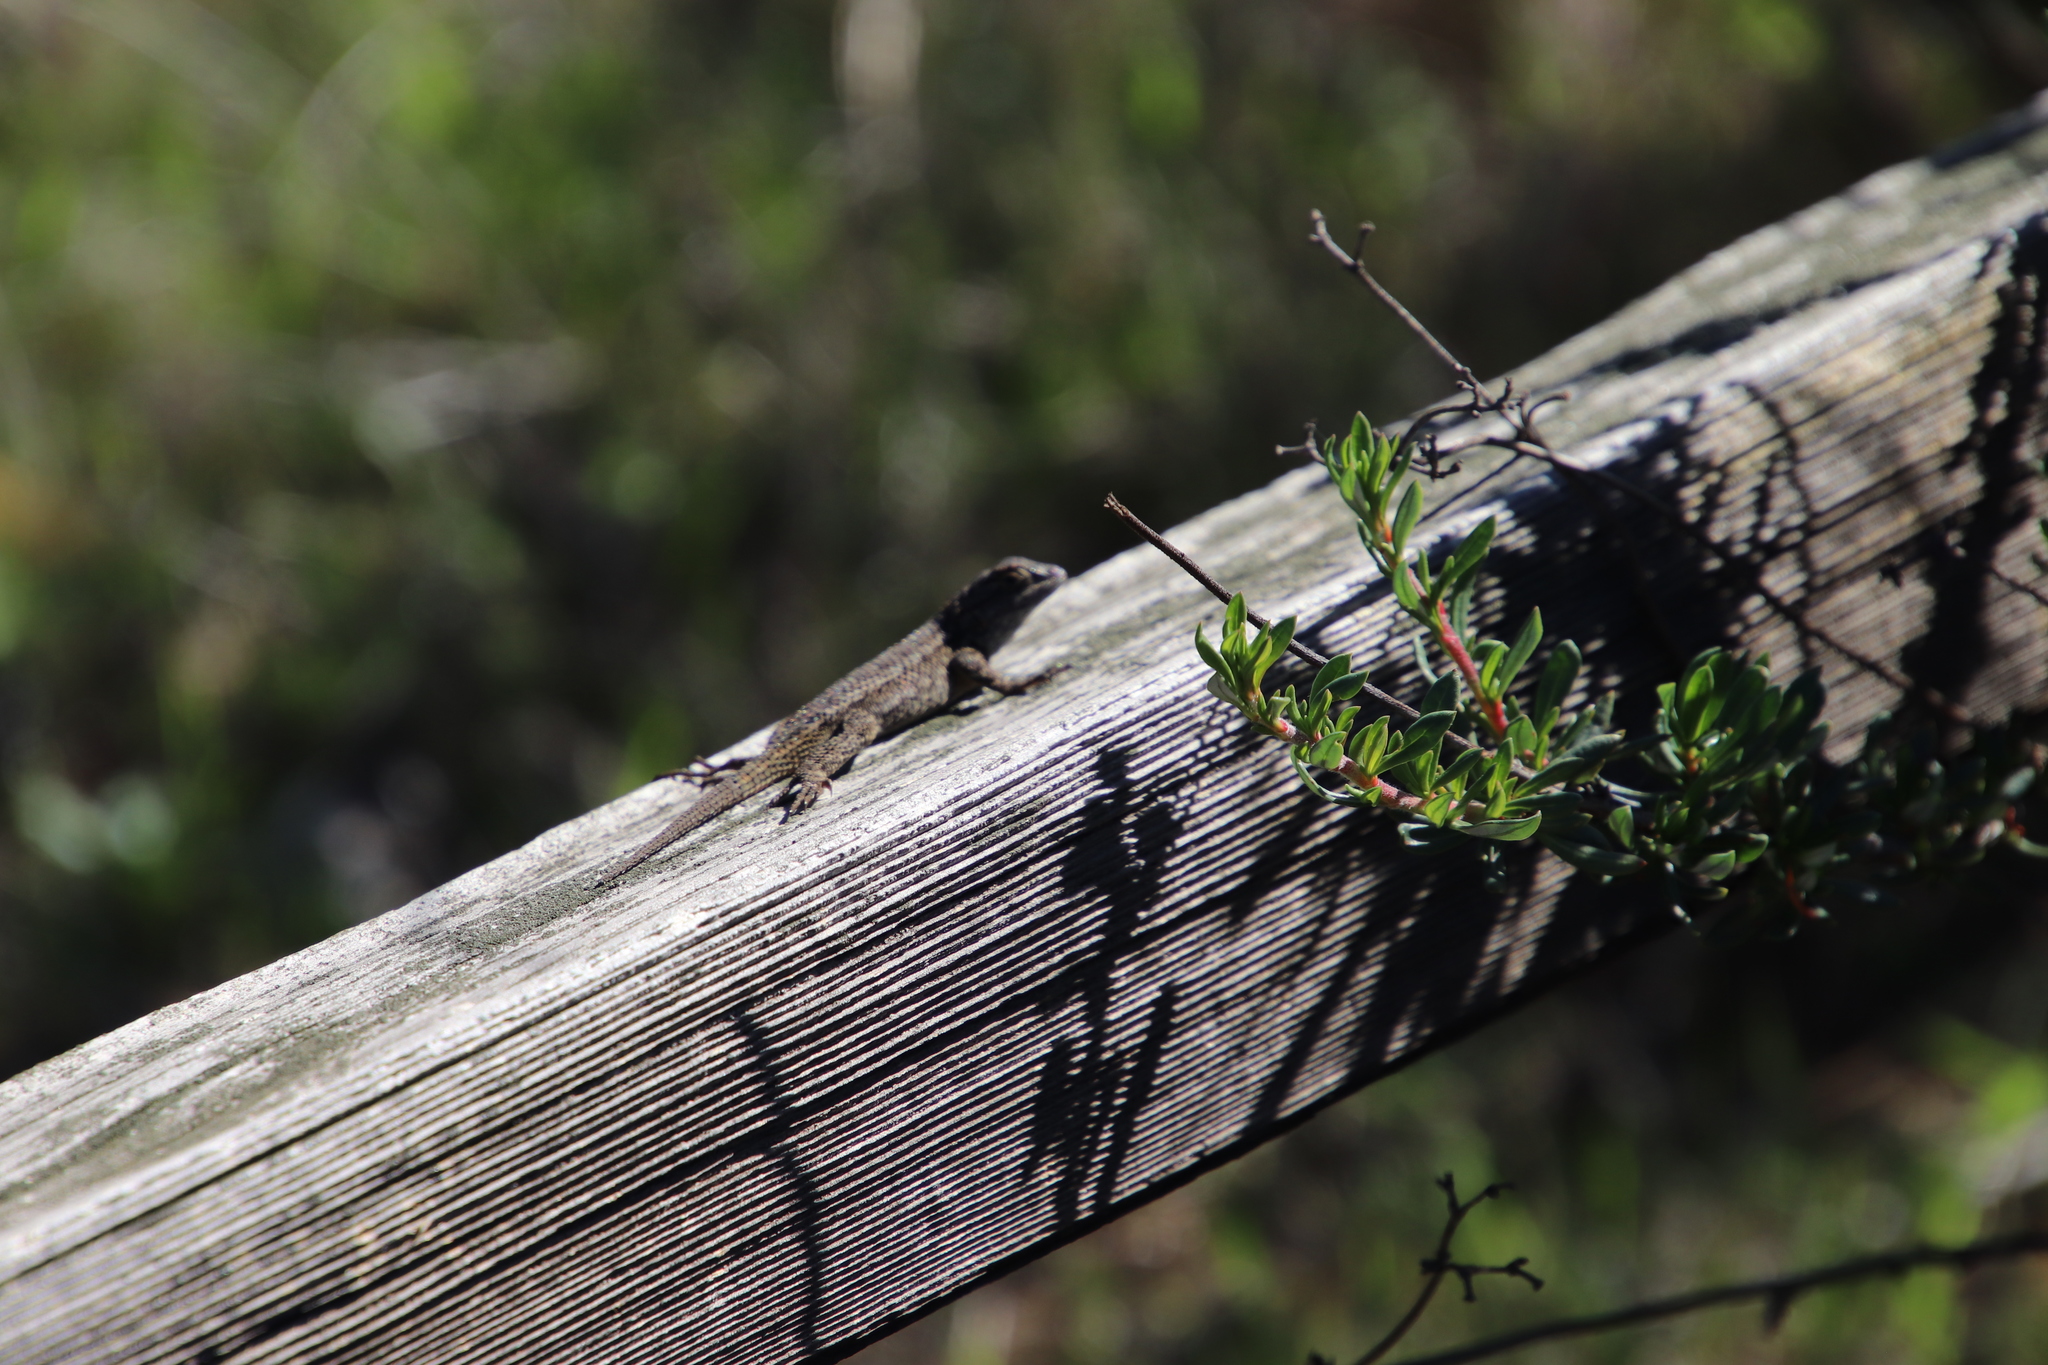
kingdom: Animalia
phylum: Chordata
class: Squamata
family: Phrynosomatidae
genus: Sceloporus
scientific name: Sceloporus occidentalis
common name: Western fence lizard
